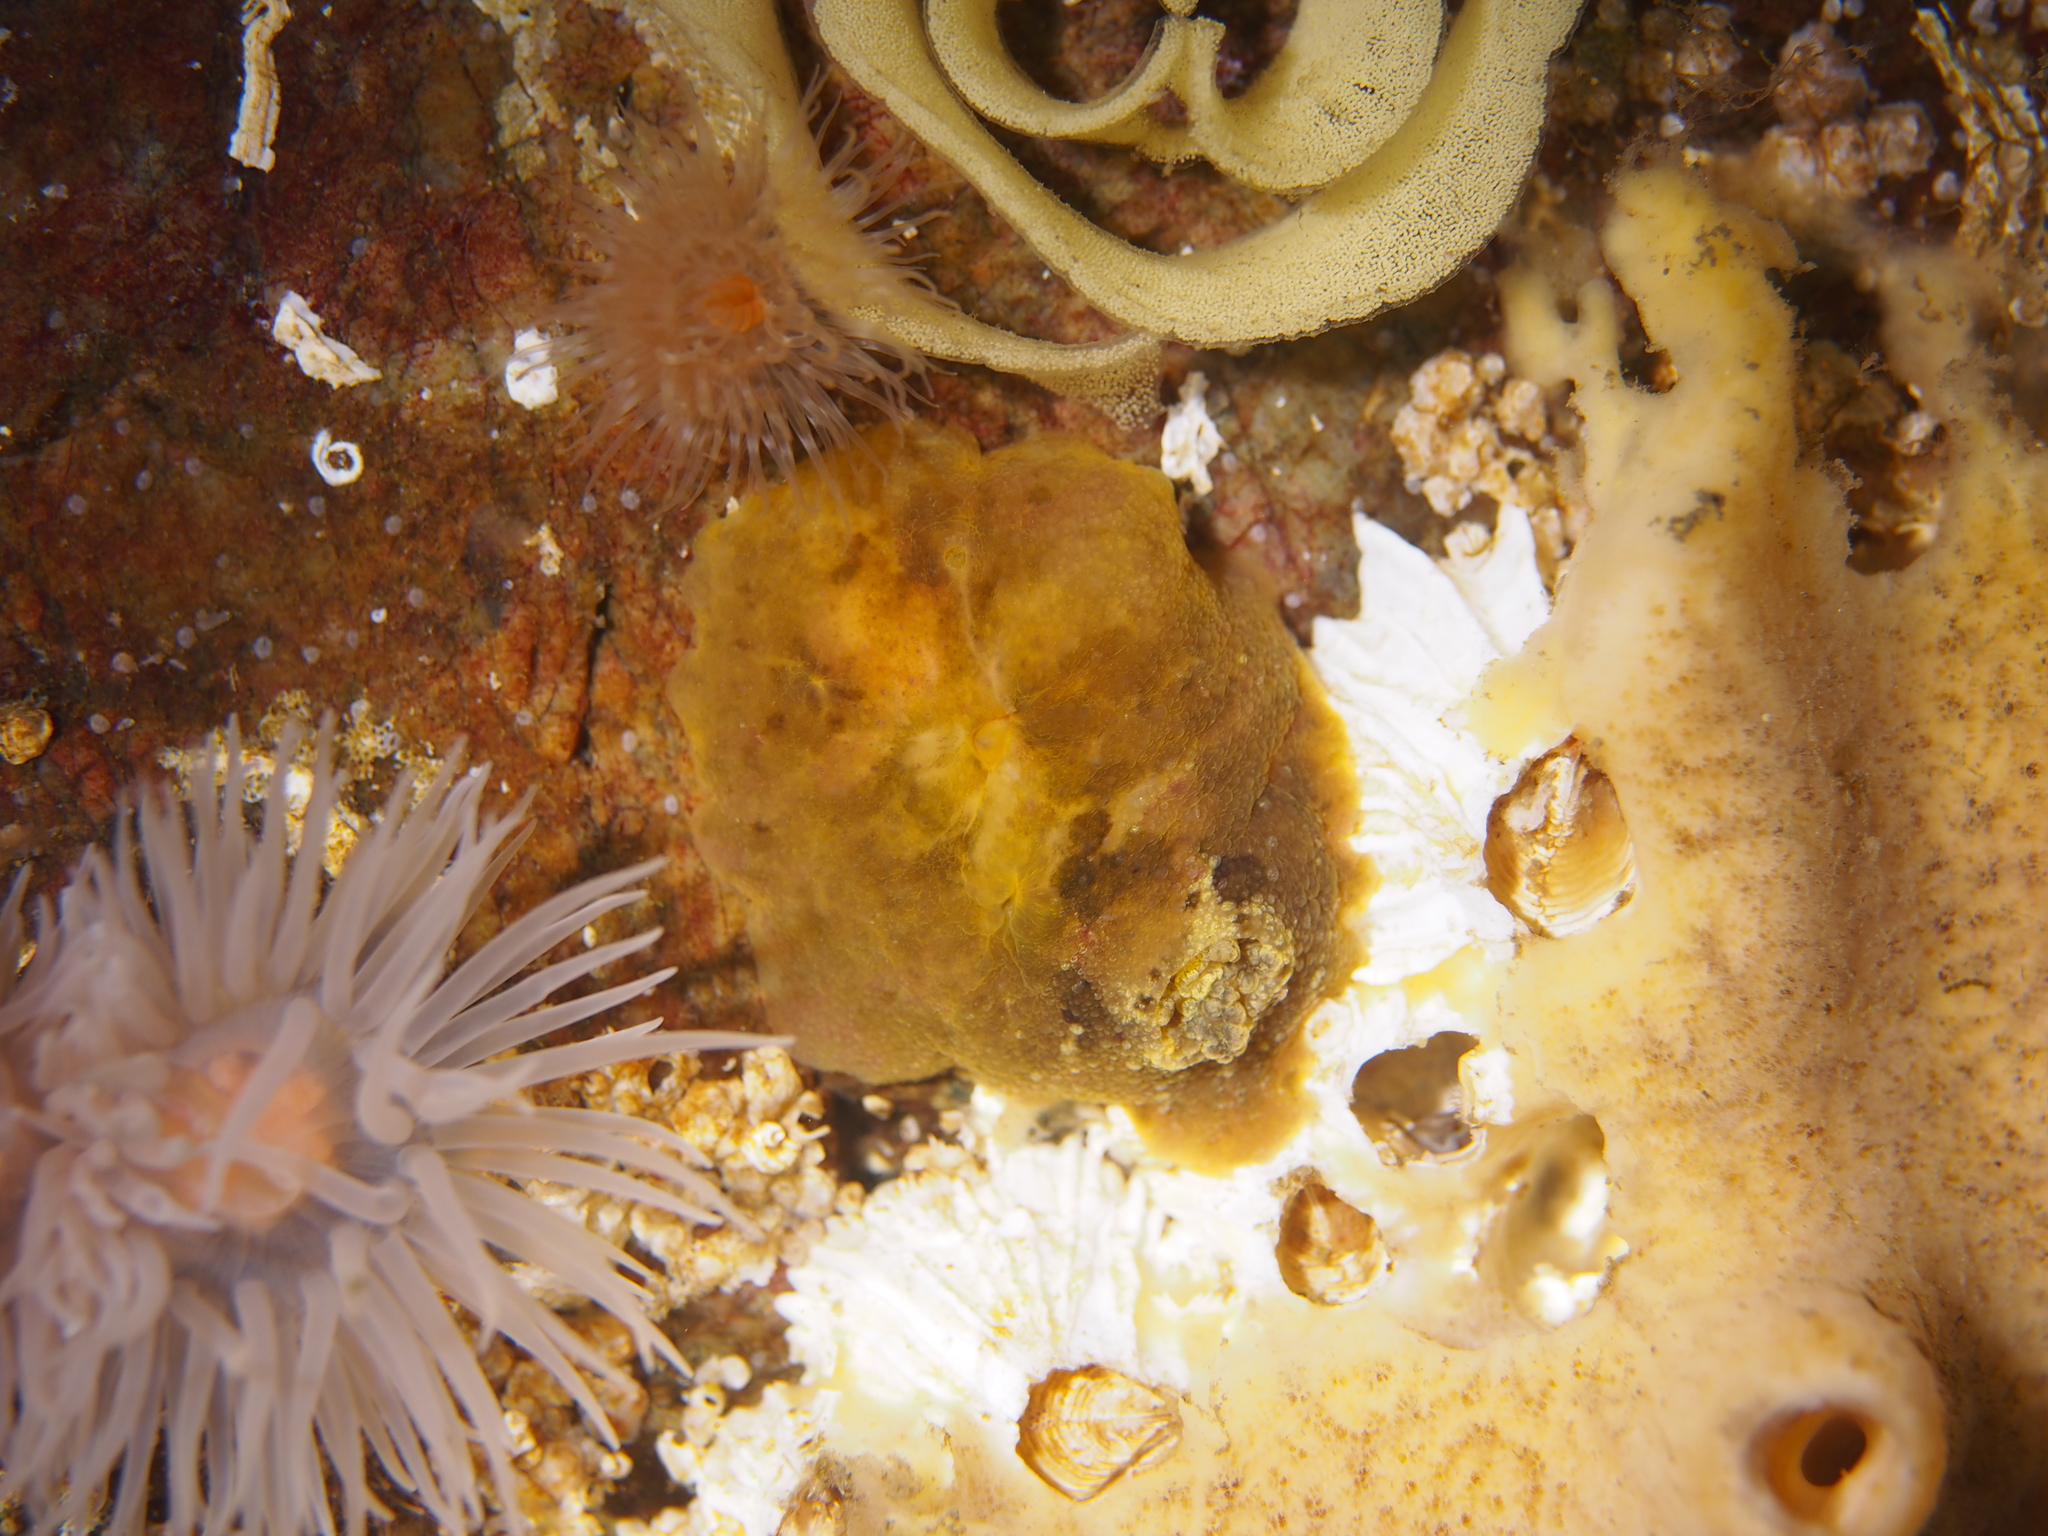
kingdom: Animalia
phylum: Mollusca
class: Gastropoda
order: Nudibranchia
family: Dorididae
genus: Doris
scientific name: Doris pseudoargus
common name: Sea lemon
